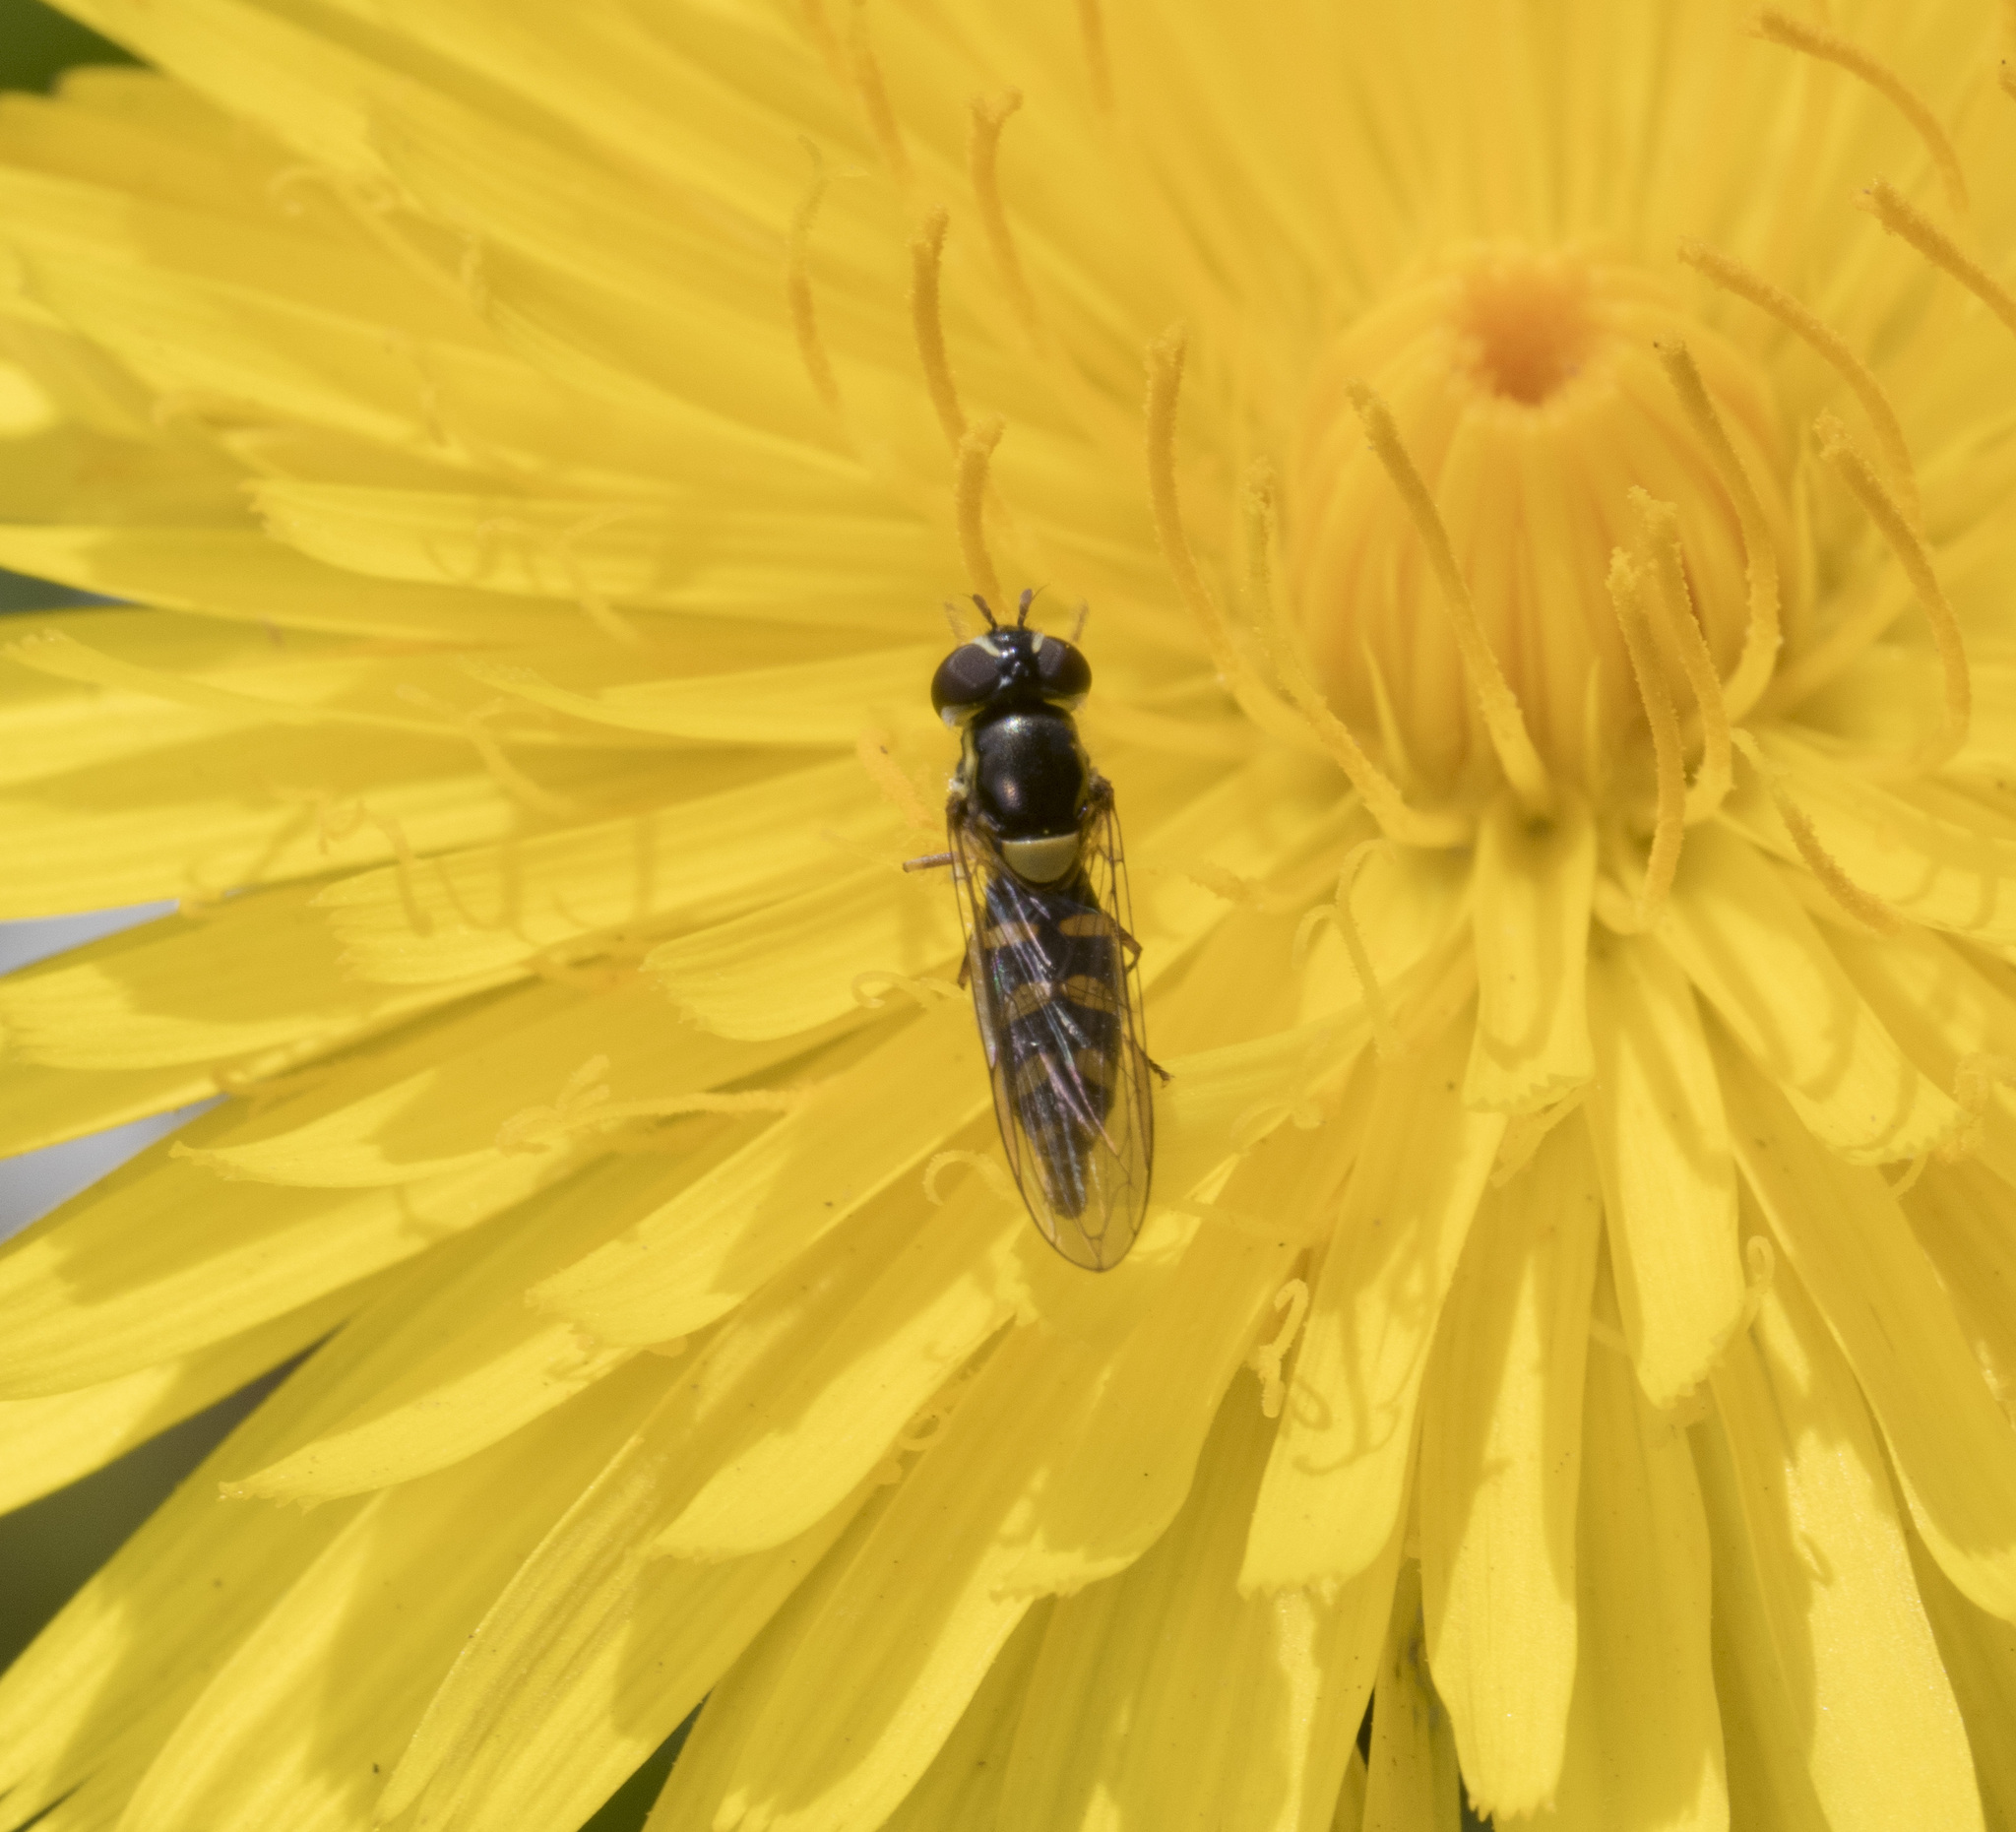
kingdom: Animalia
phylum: Arthropoda
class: Insecta
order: Diptera
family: Syrphidae
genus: Allograpta
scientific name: Allograpta hortensis
